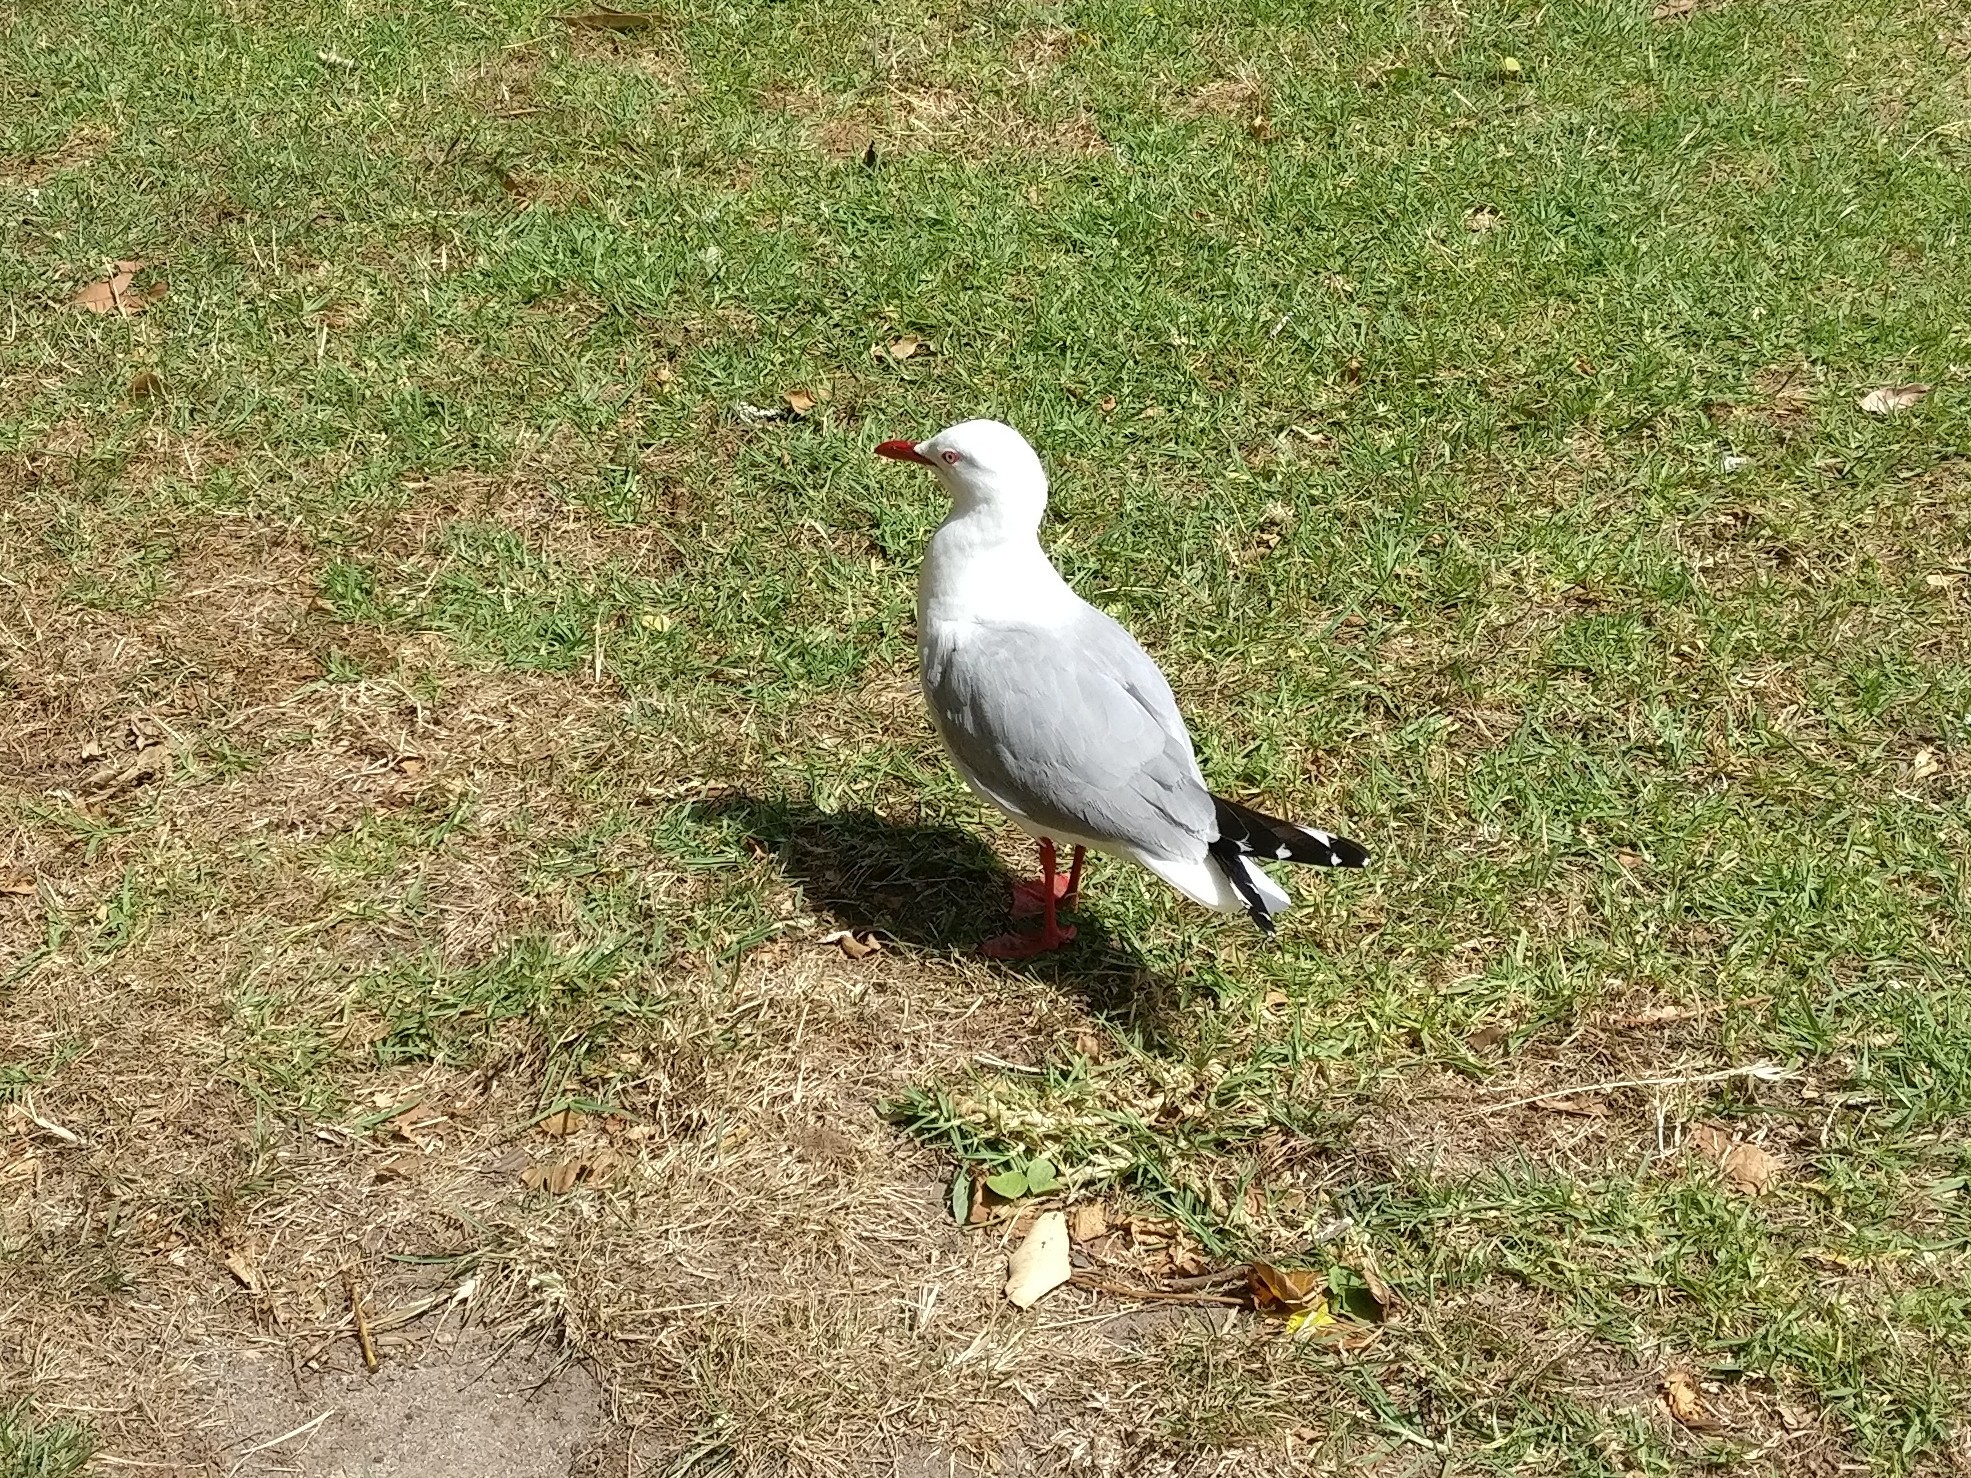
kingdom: Animalia
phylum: Chordata
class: Aves
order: Charadriiformes
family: Laridae
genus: Chroicocephalus
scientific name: Chroicocephalus novaehollandiae
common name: Silver gull
